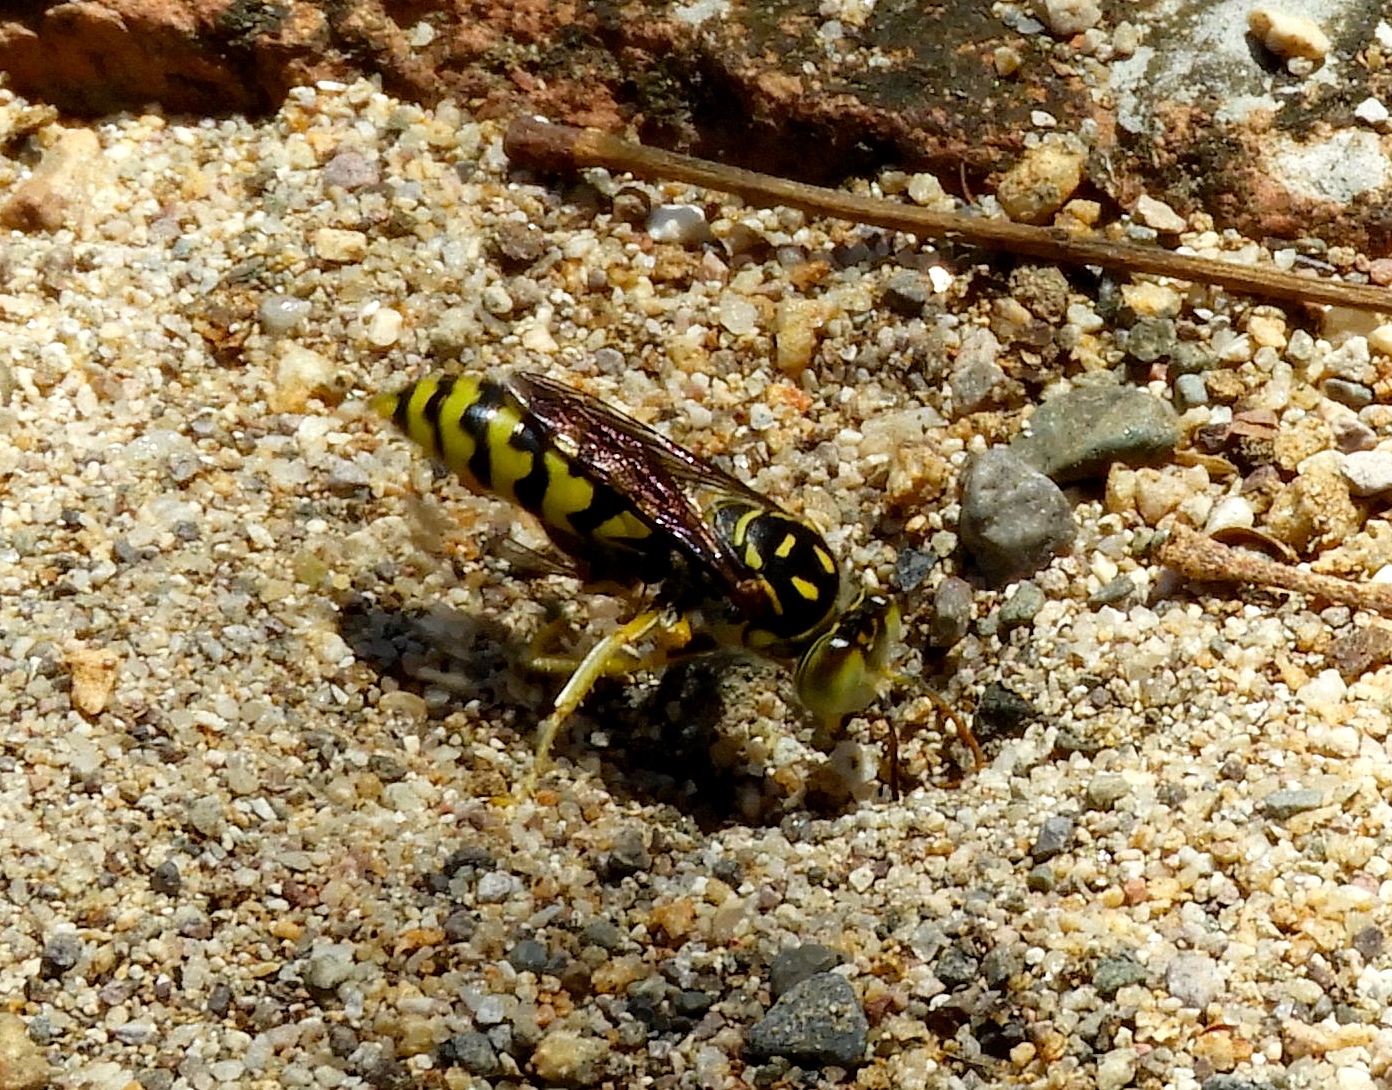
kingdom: Animalia
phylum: Arthropoda
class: Insecta
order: Hymenoptera
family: Crabronidae
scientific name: Crabronidae
